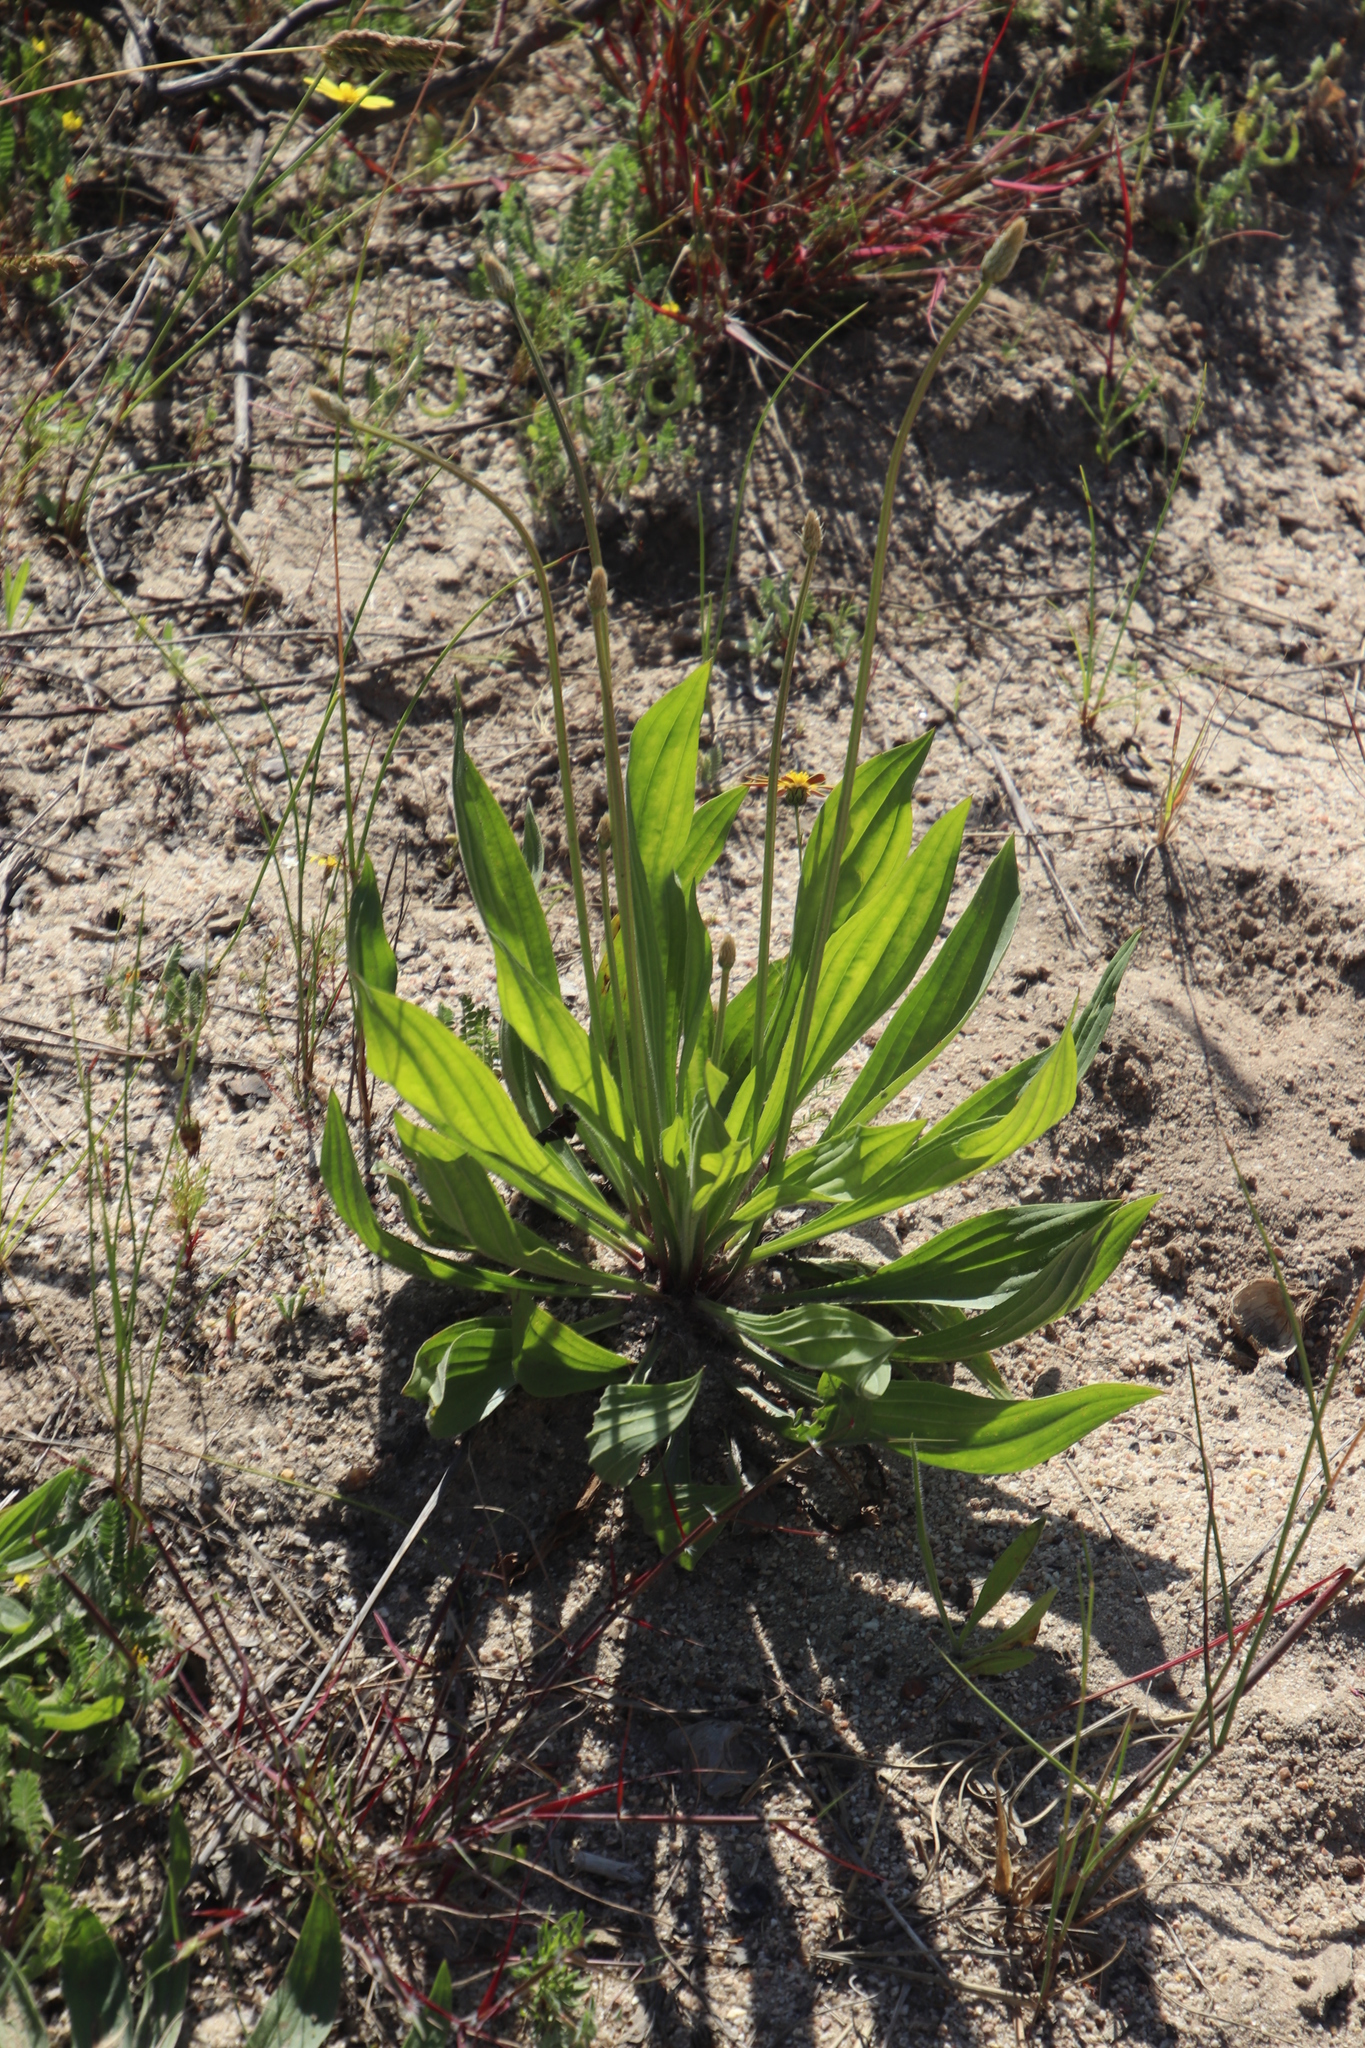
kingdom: Plantae
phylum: Tracheophyta
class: Magnoliopsida
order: Lamiales
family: Plantaginaceae
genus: Plantago
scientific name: Plantago lanceolata
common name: Ribwort plantain
